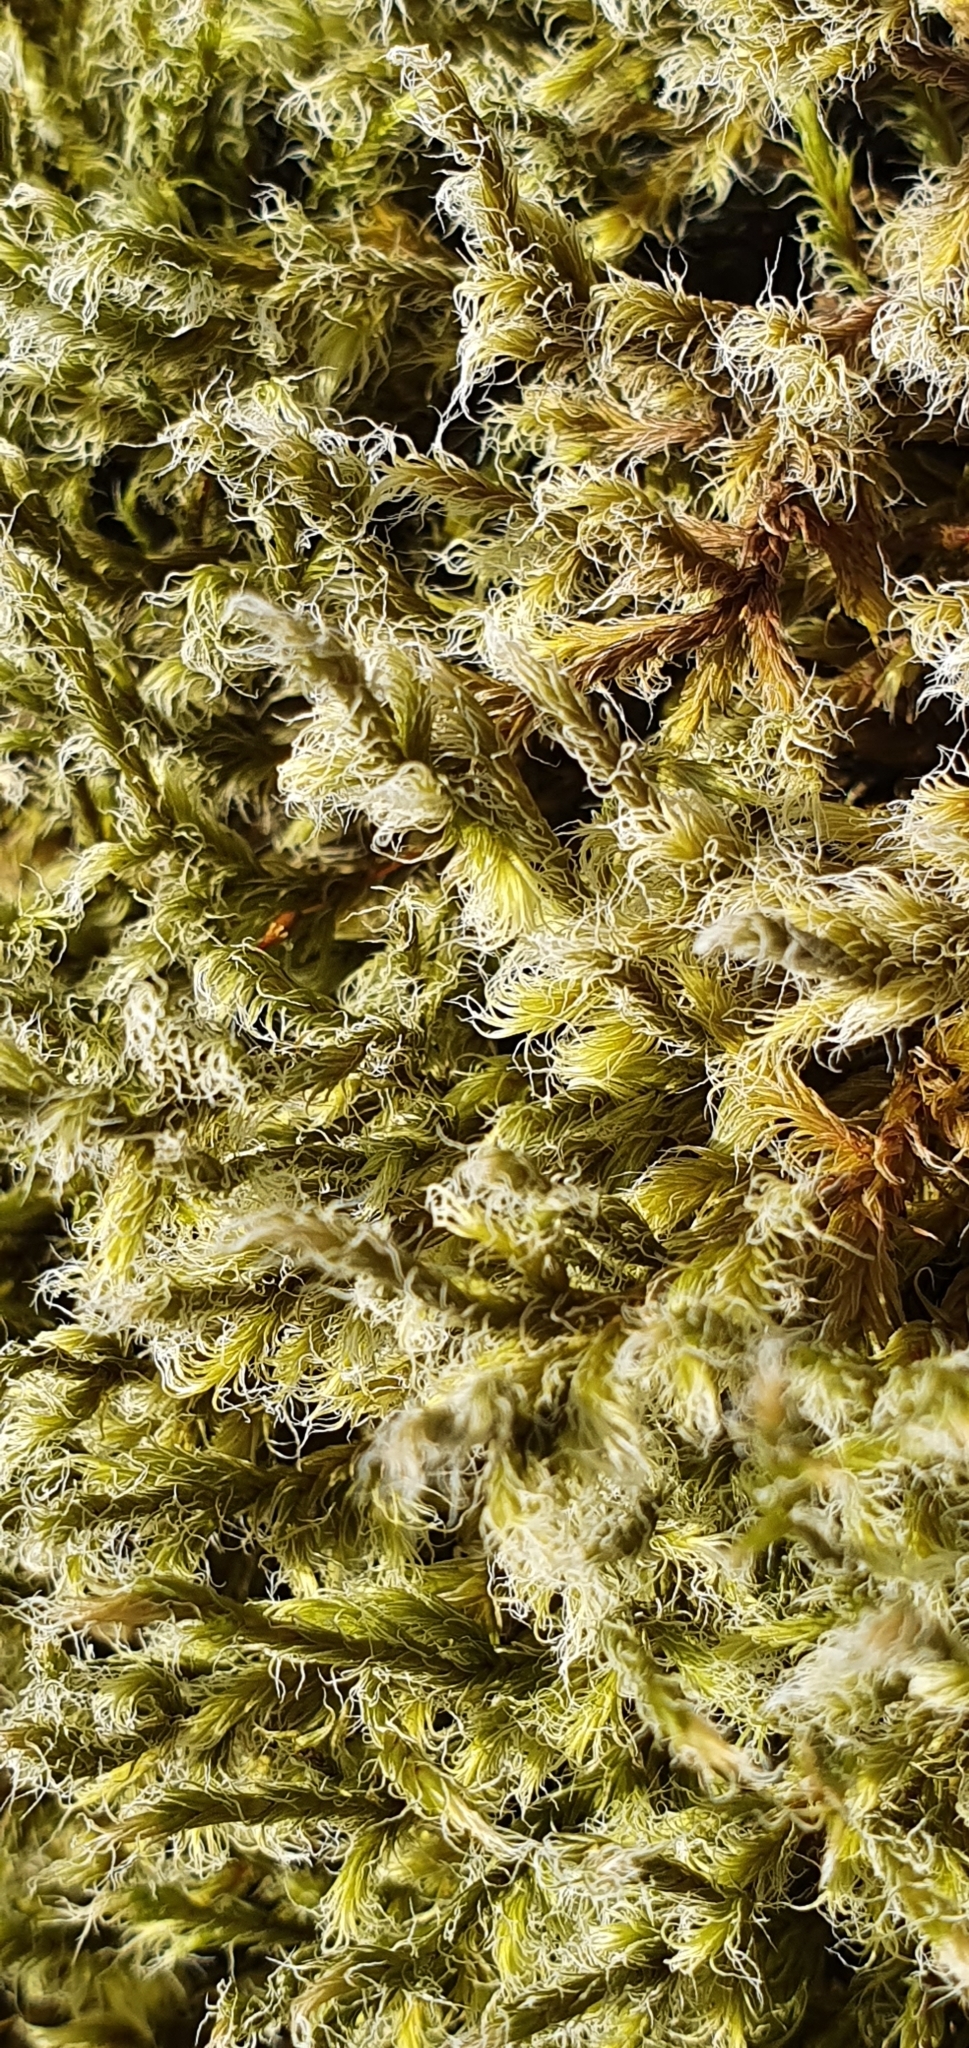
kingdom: Plantae
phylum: Bryophyta
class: Bryopsida
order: Grimmiales
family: Grimmiaceae
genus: Racomitrium
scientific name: Racomitrium lanuginosum
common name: Hoary rock moss
